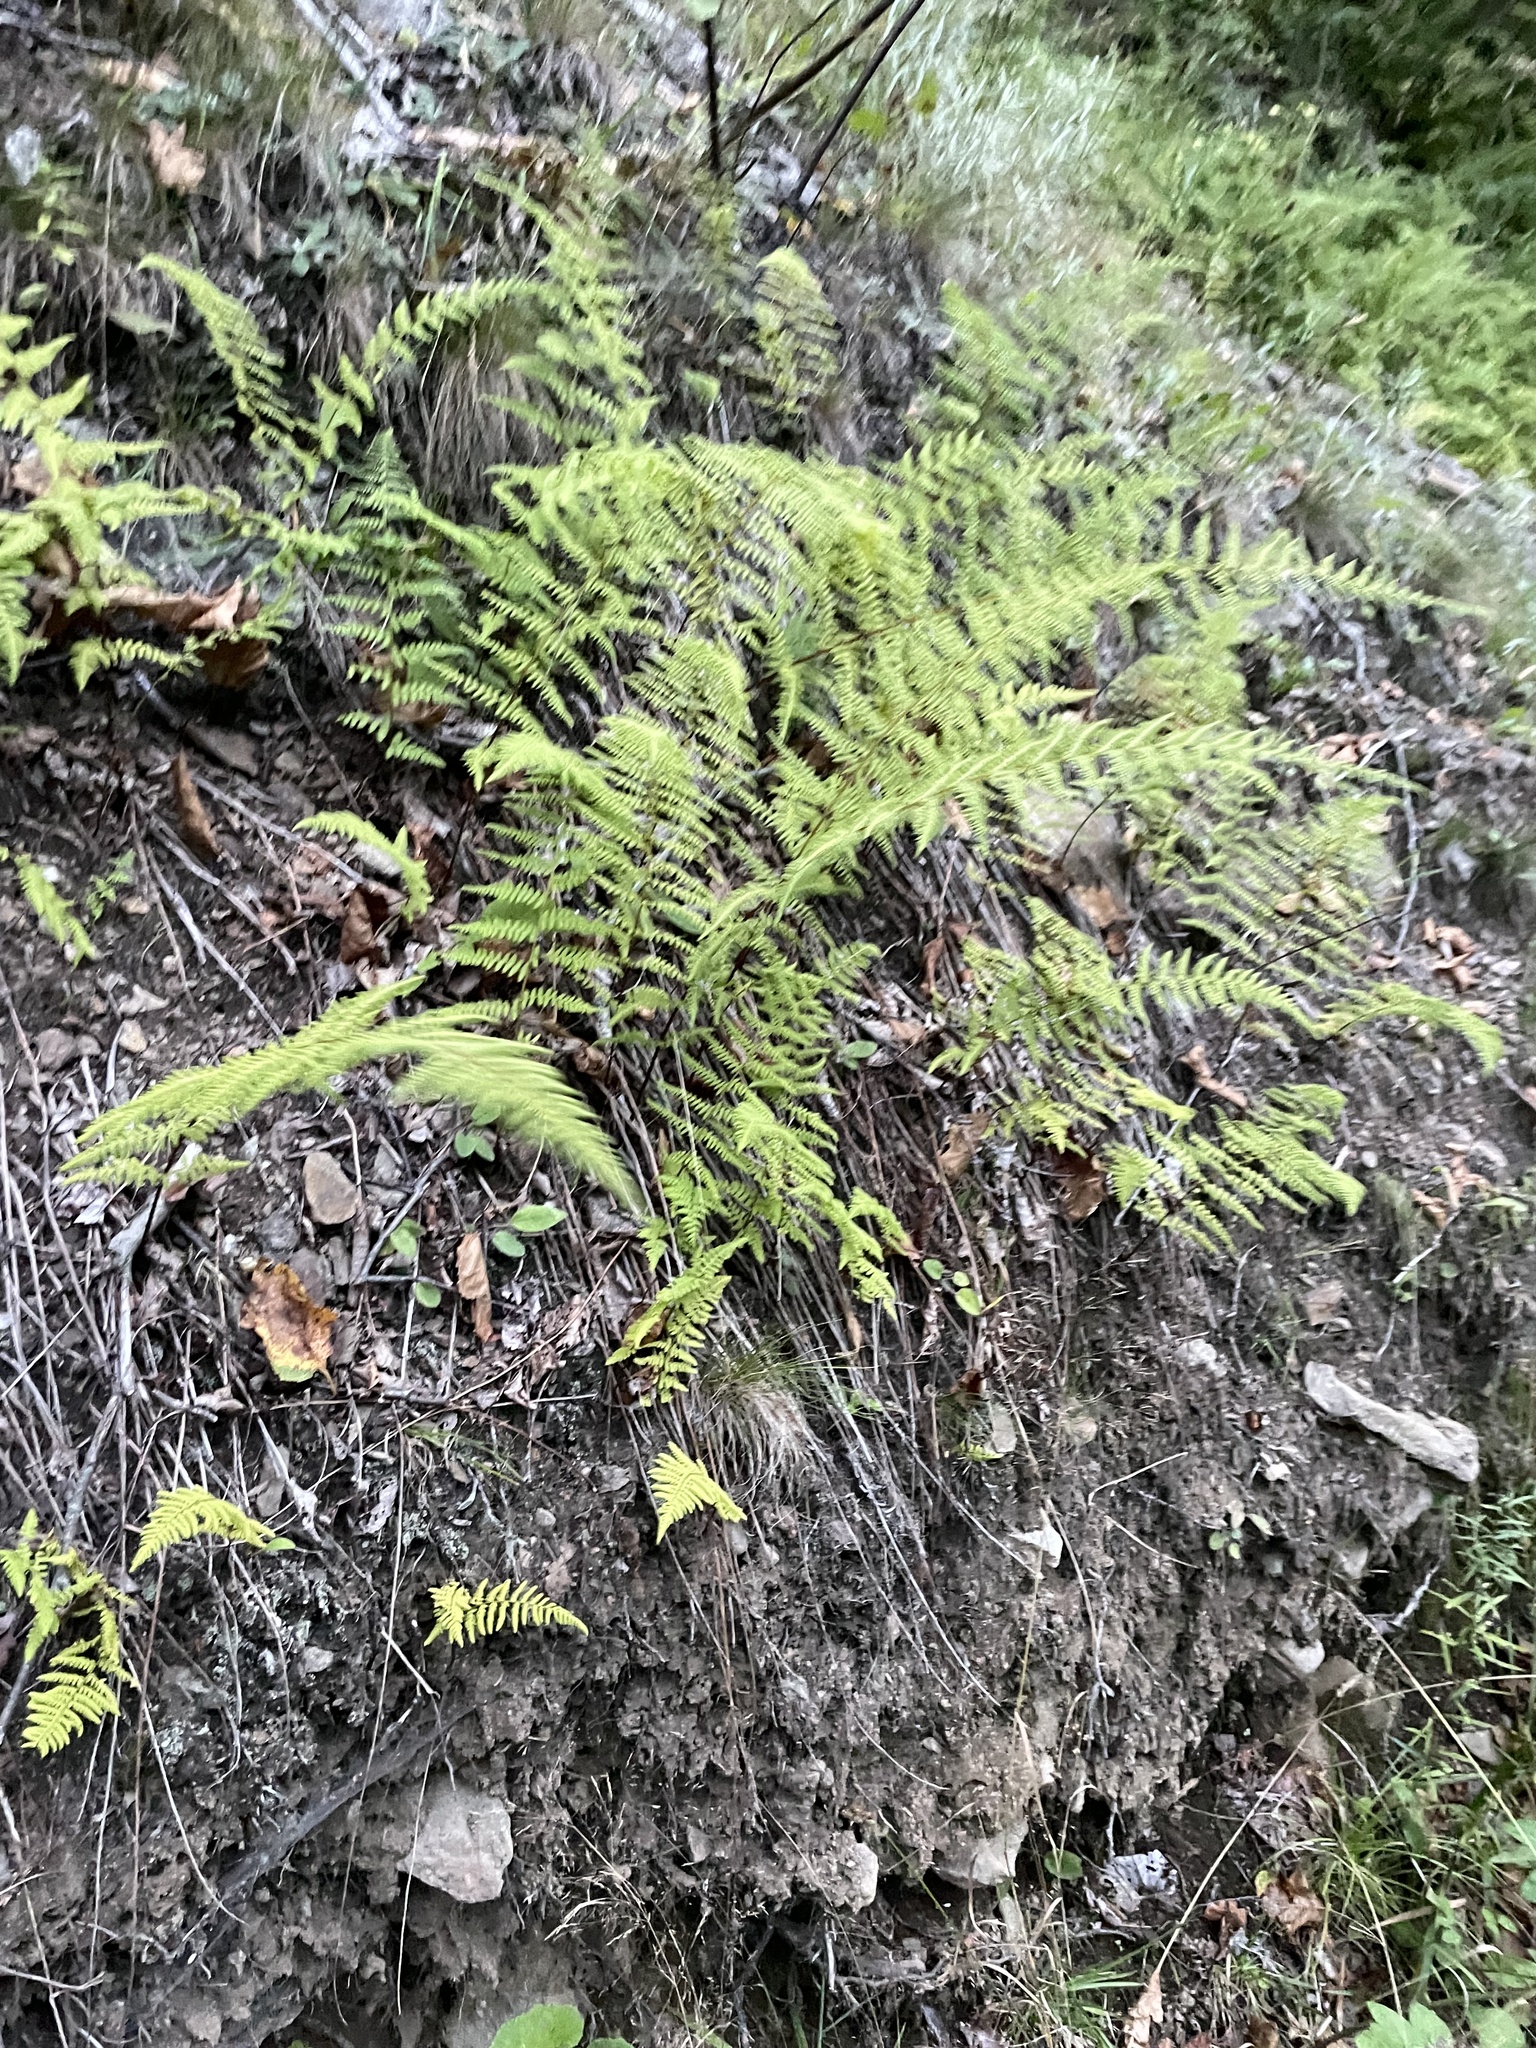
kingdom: Plantae
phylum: Tracheophyta
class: Polypodiopsida
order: Polypodiales
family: Dennstaedtiaceae
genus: Sitobolium
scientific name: Sitobolium punctilobum
